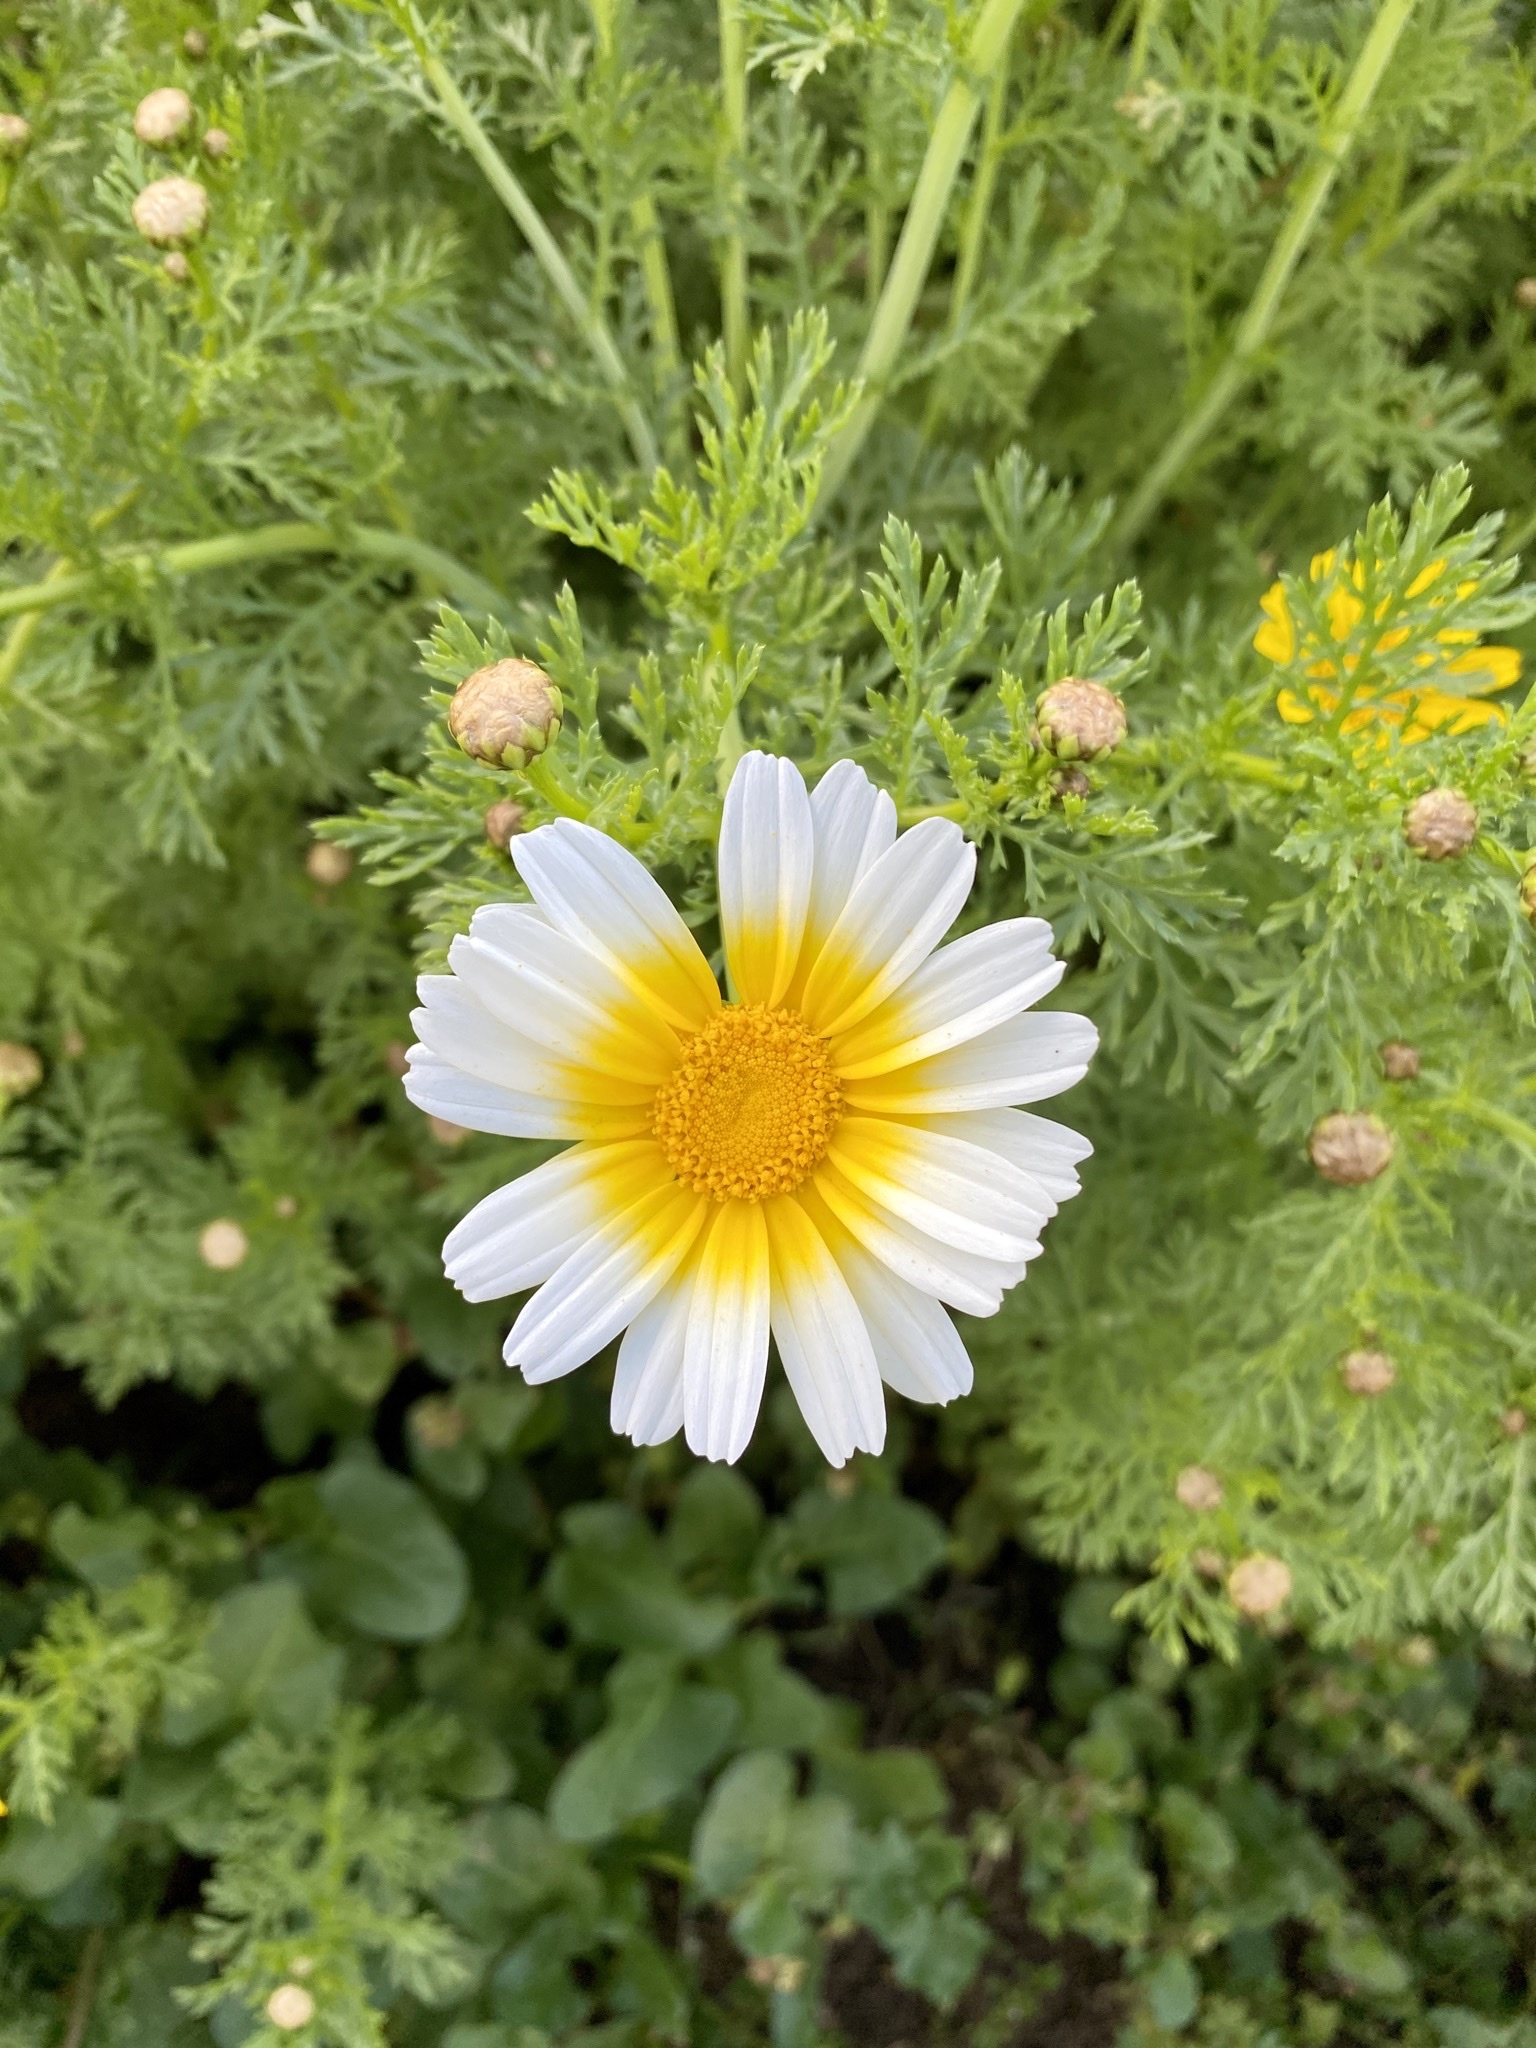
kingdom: Plantae
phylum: Tracheophyta
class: Magnoliopsida
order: Asterales
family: Asteraceae
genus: Glebionis
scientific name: Glebionis coronaria
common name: Crowndaisy
